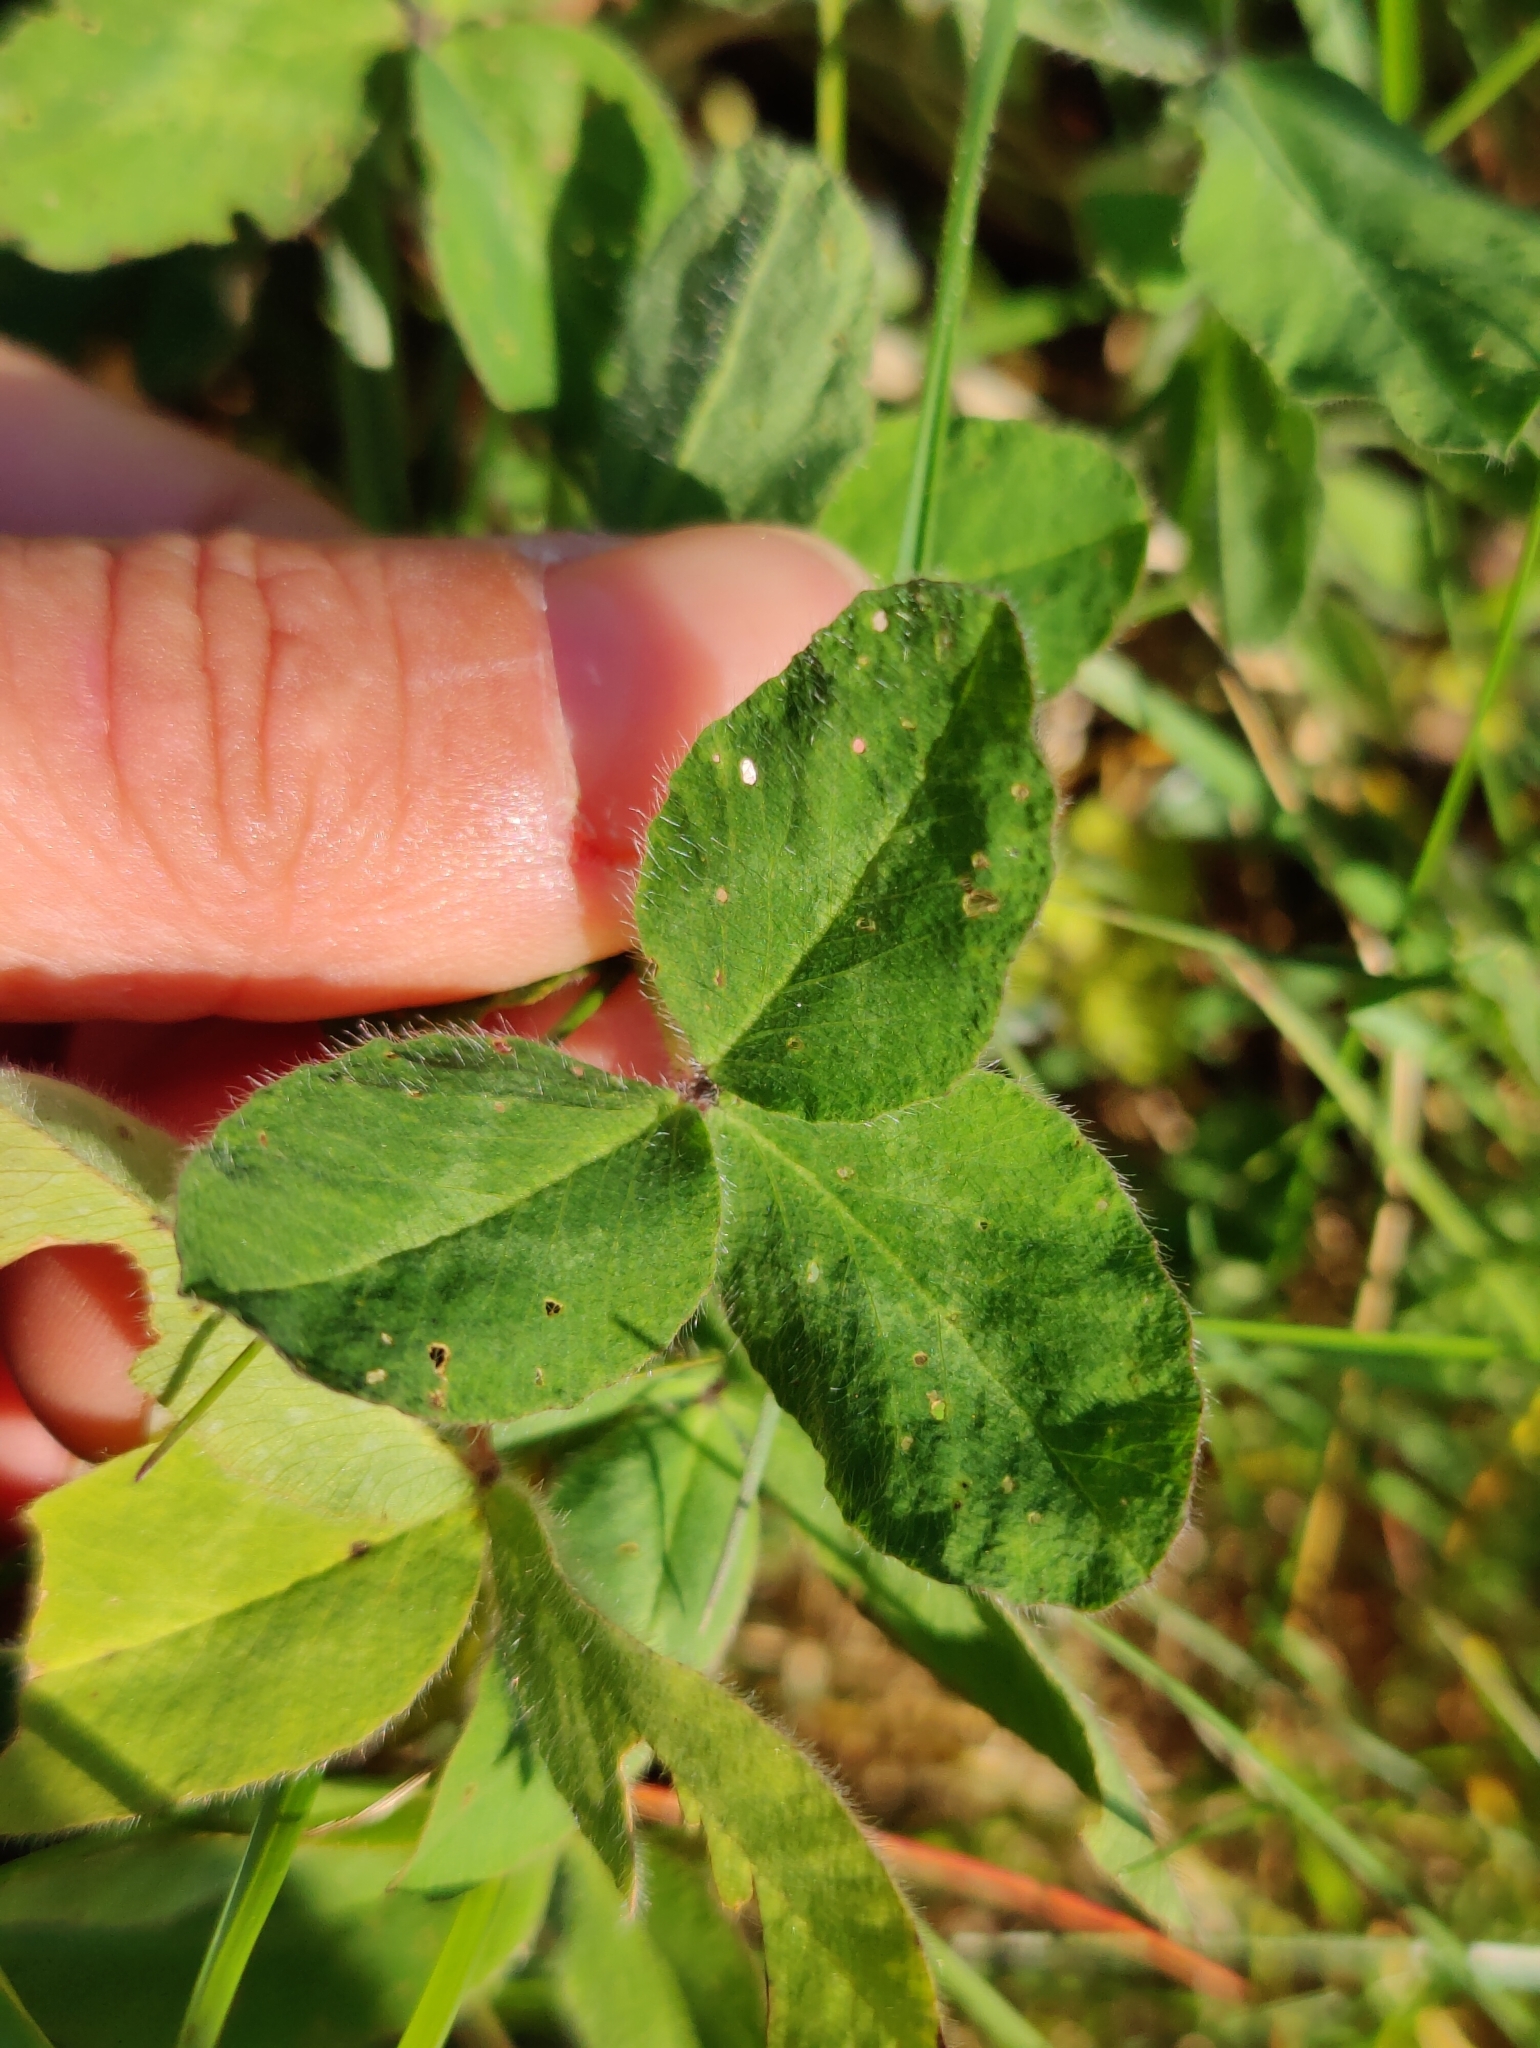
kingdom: Plantae
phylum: Tracheophyta
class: Magnoliopsida
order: Fabales
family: Fabaceae
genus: Trifolium
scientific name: Trifolium pratense
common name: Red clover
